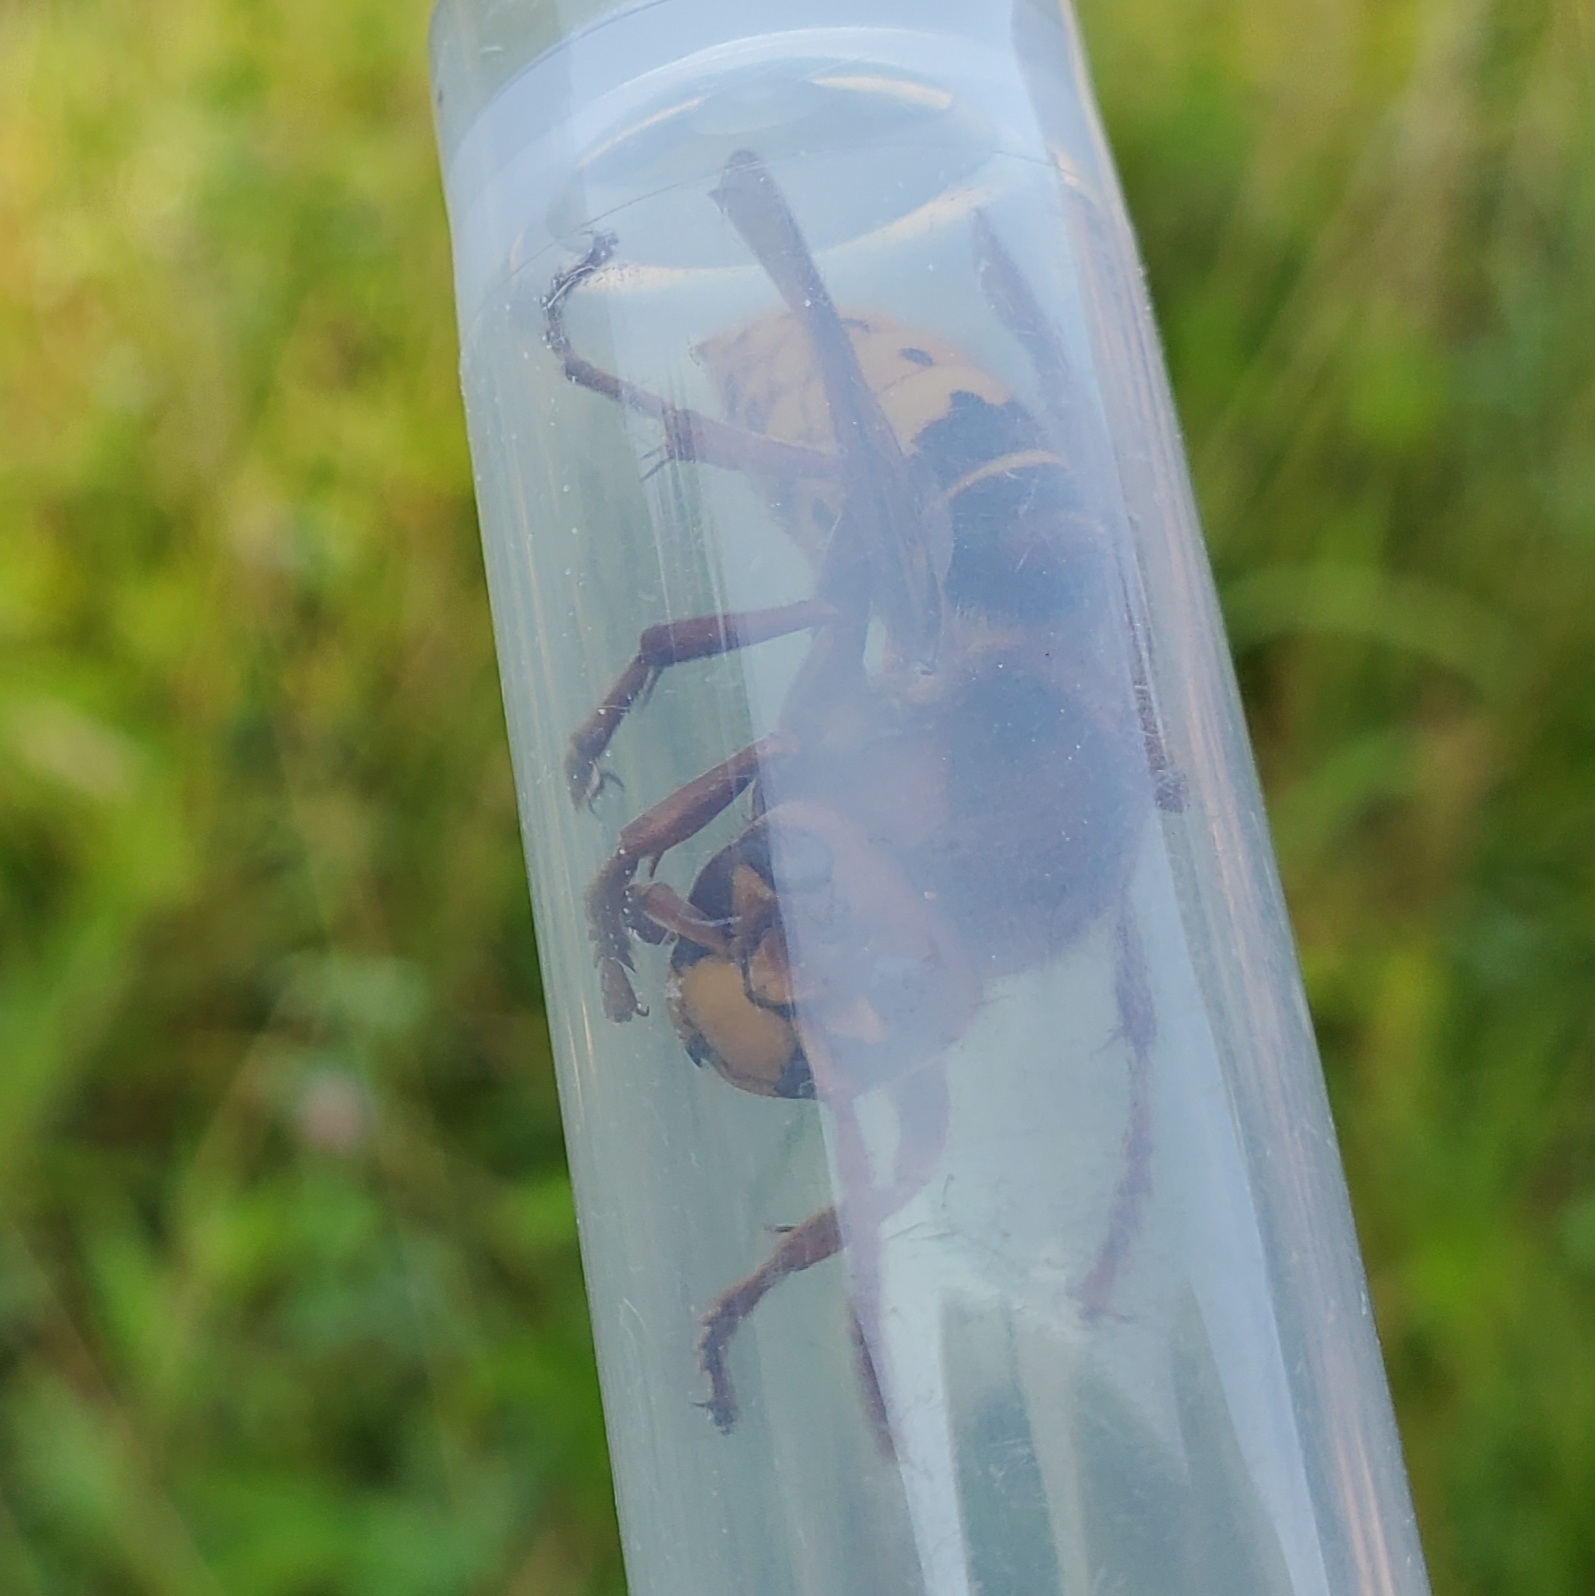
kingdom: Animalia
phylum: Arthropoda
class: Insecta
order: Hymenoptera
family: Vespidae
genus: Vespa
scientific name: Vespa crabro
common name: Hornet
